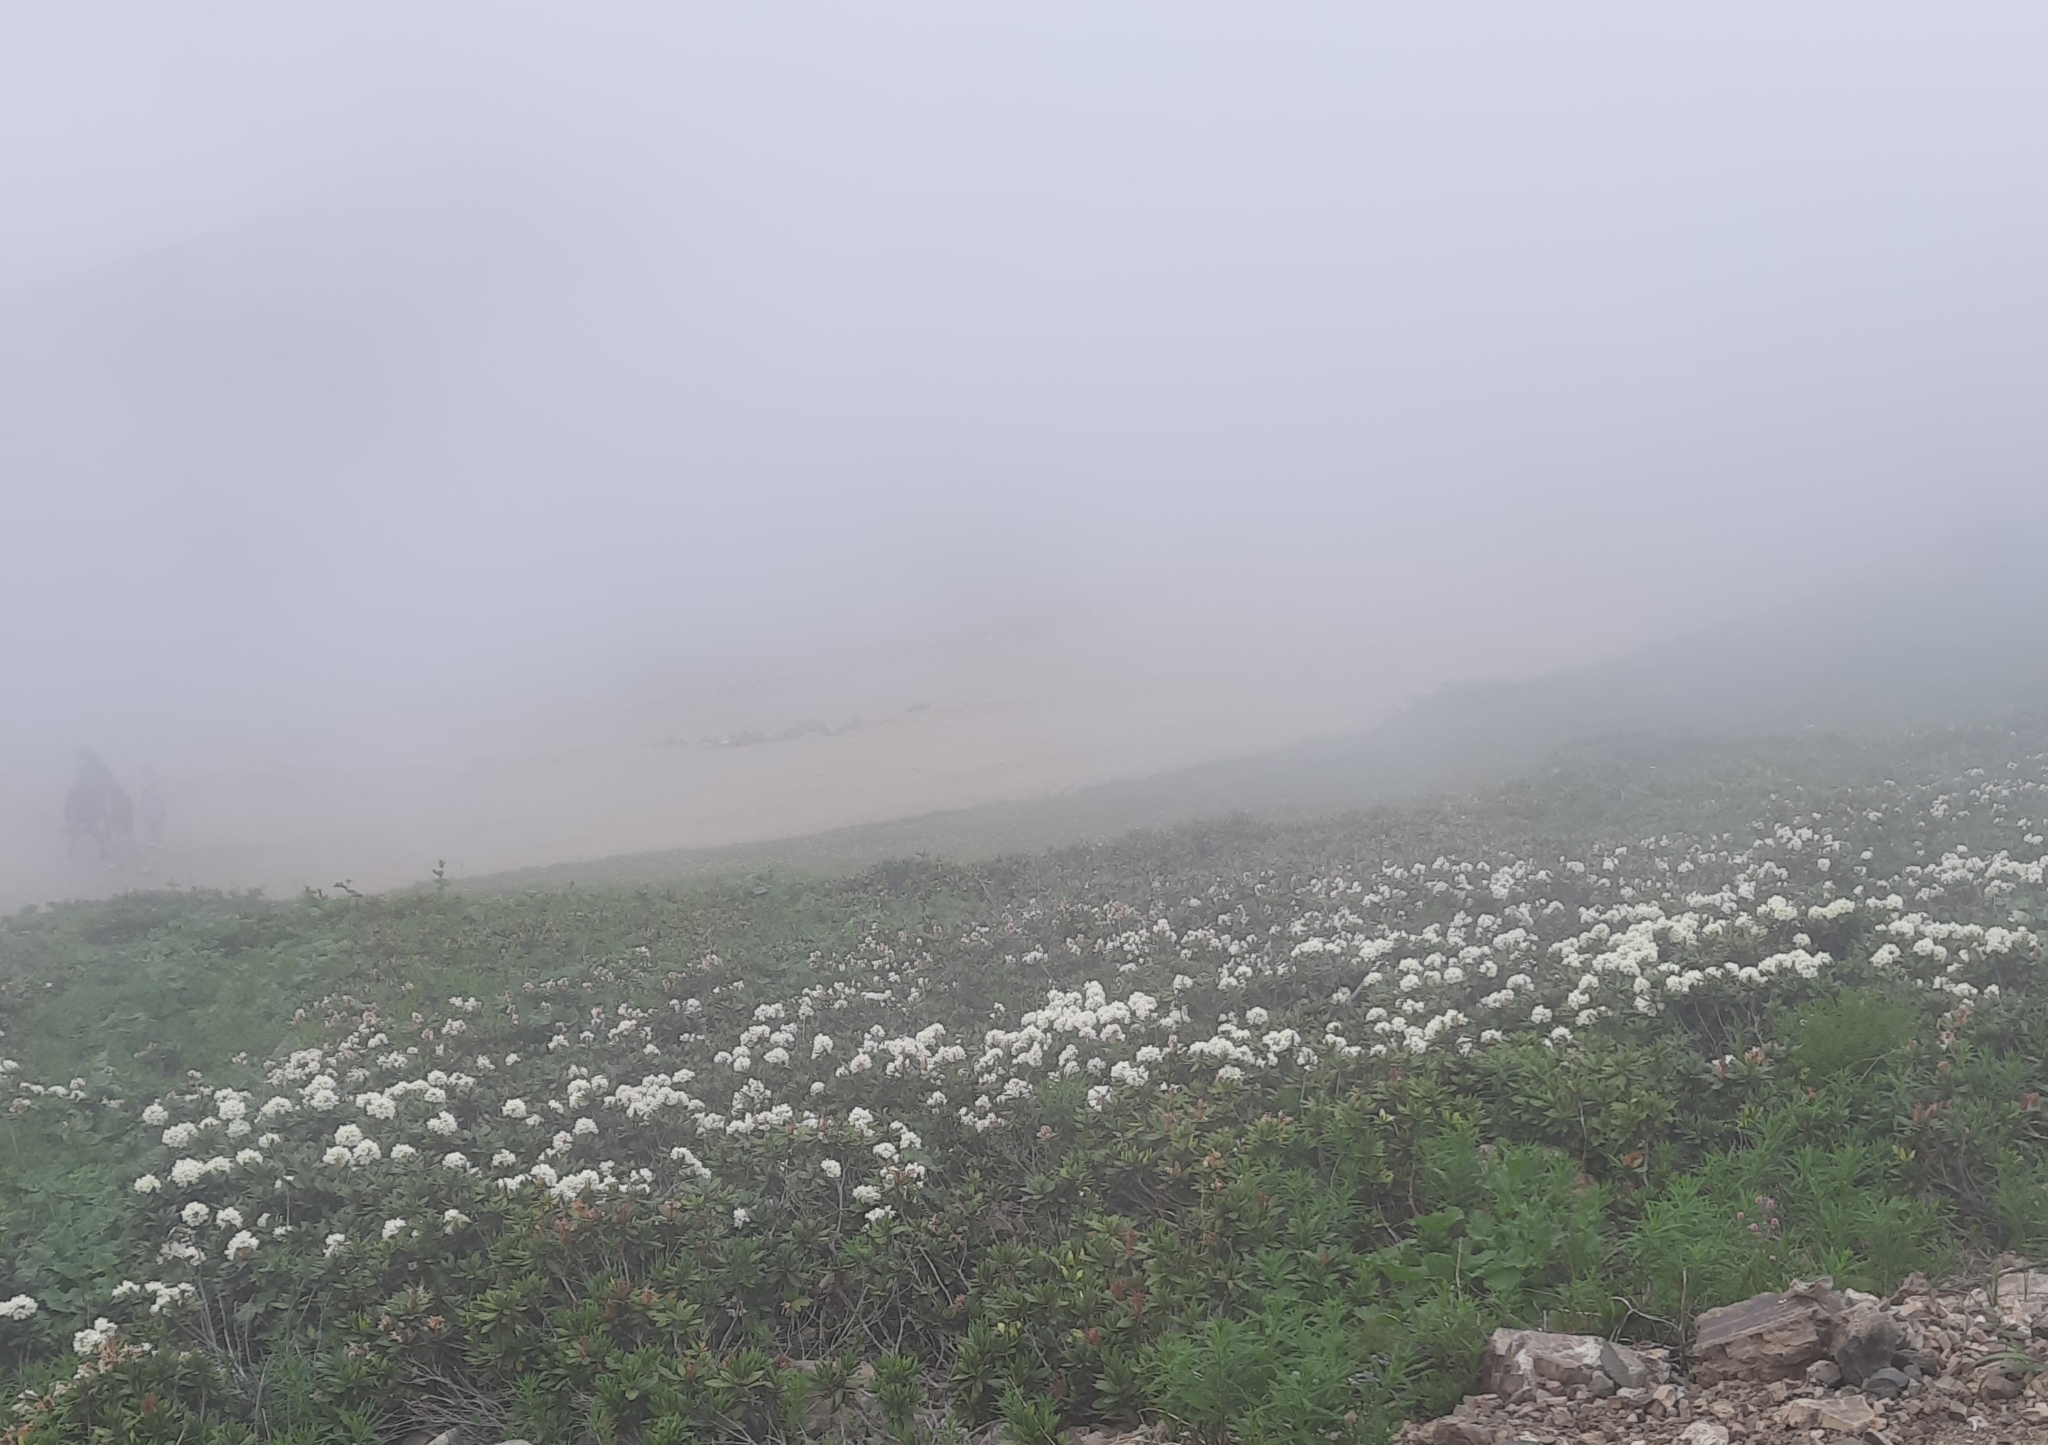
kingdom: Plantae
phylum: Tracheophyta
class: Magnoliopsida
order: Ericales
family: Ericaceae
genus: Rhododendron
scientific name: Rhododendron caucasicum
